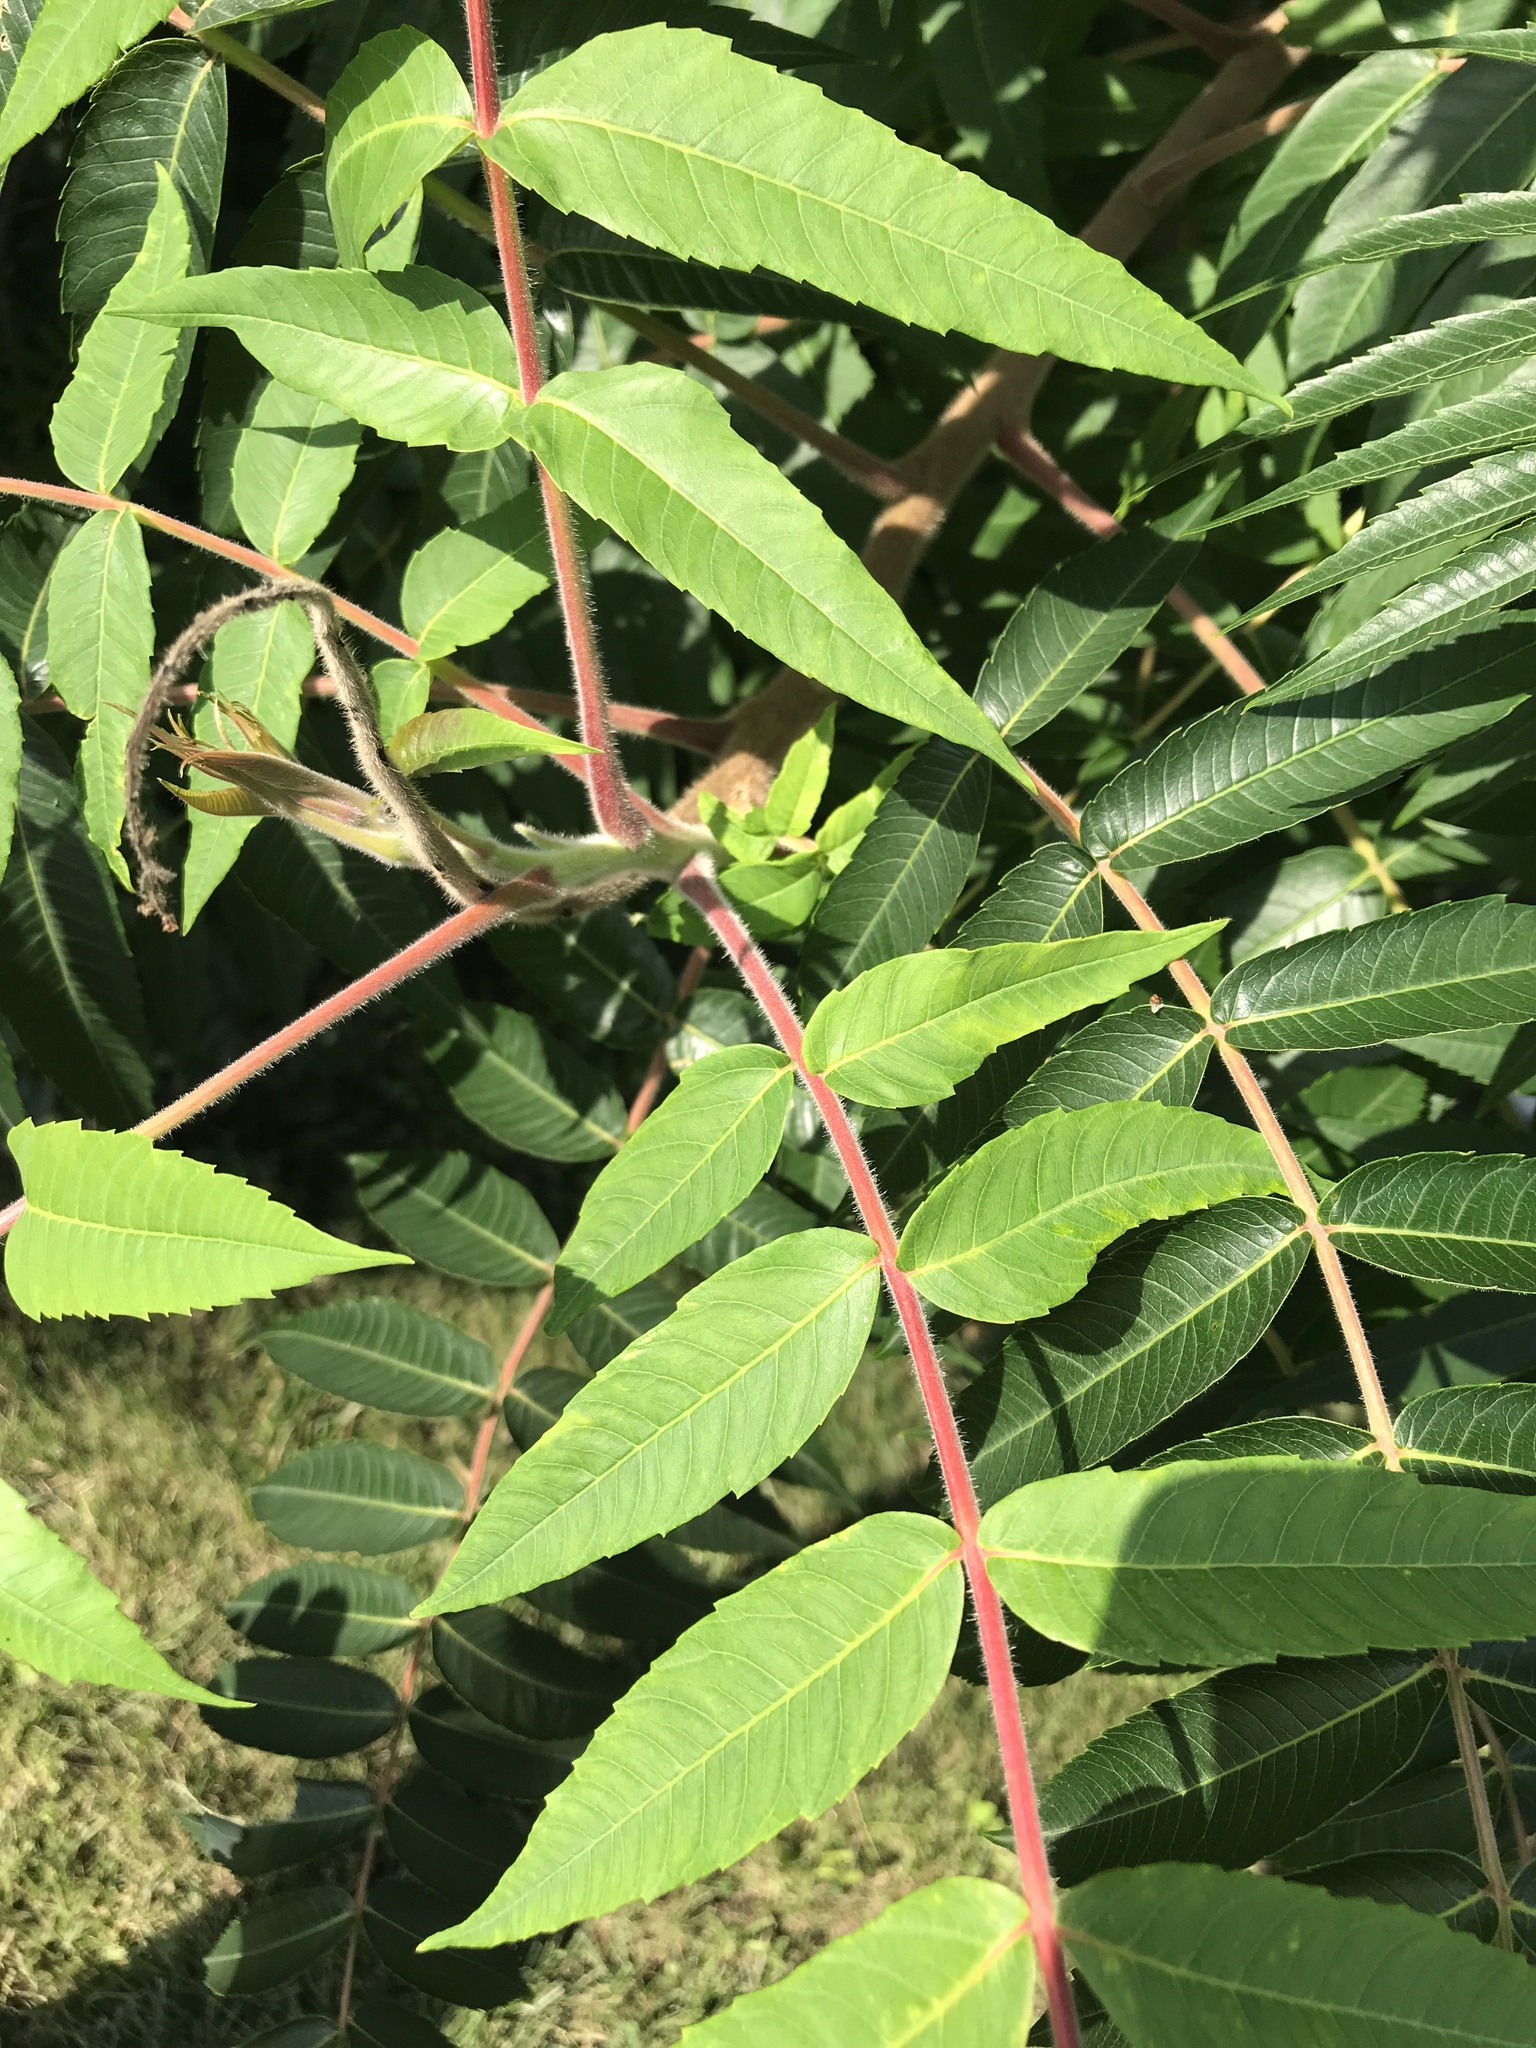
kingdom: Plantae
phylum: Tracheophyta
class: Magnoliopsida
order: Sapindales
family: Anacardiaceae
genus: Rhus
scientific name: Rhus typhina
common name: Staghorn sumac
